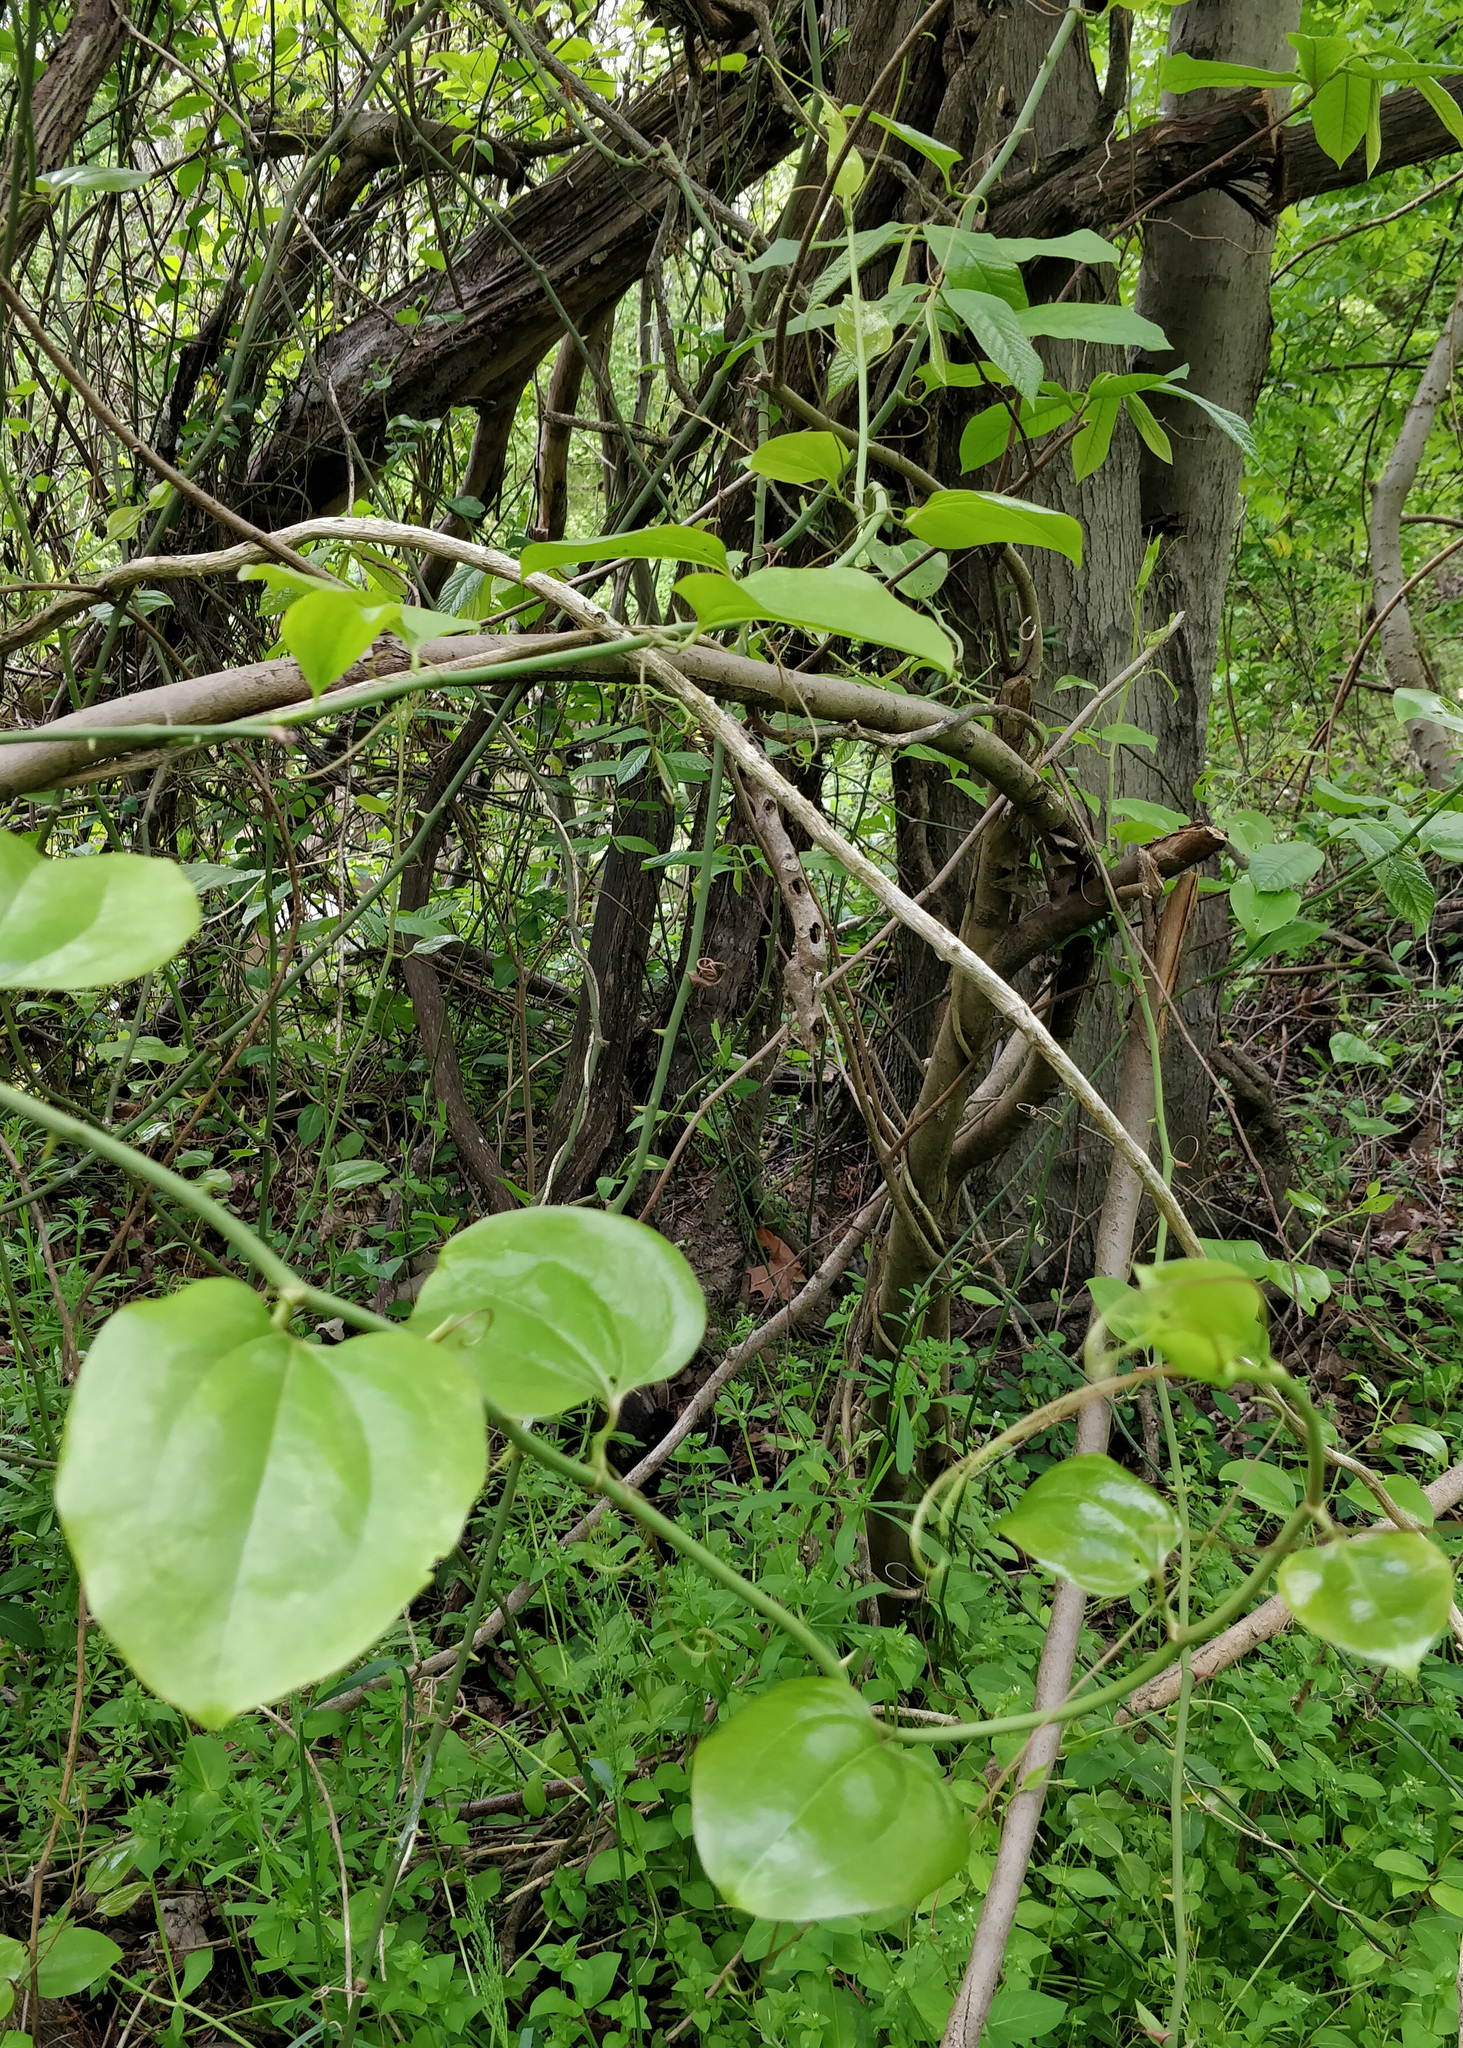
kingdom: Plantae
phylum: Tracheophyta
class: Liliopsida
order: Liliales
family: Smilacaceae
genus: Smilax
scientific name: Smilax rotundifolia
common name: Bullbriar
